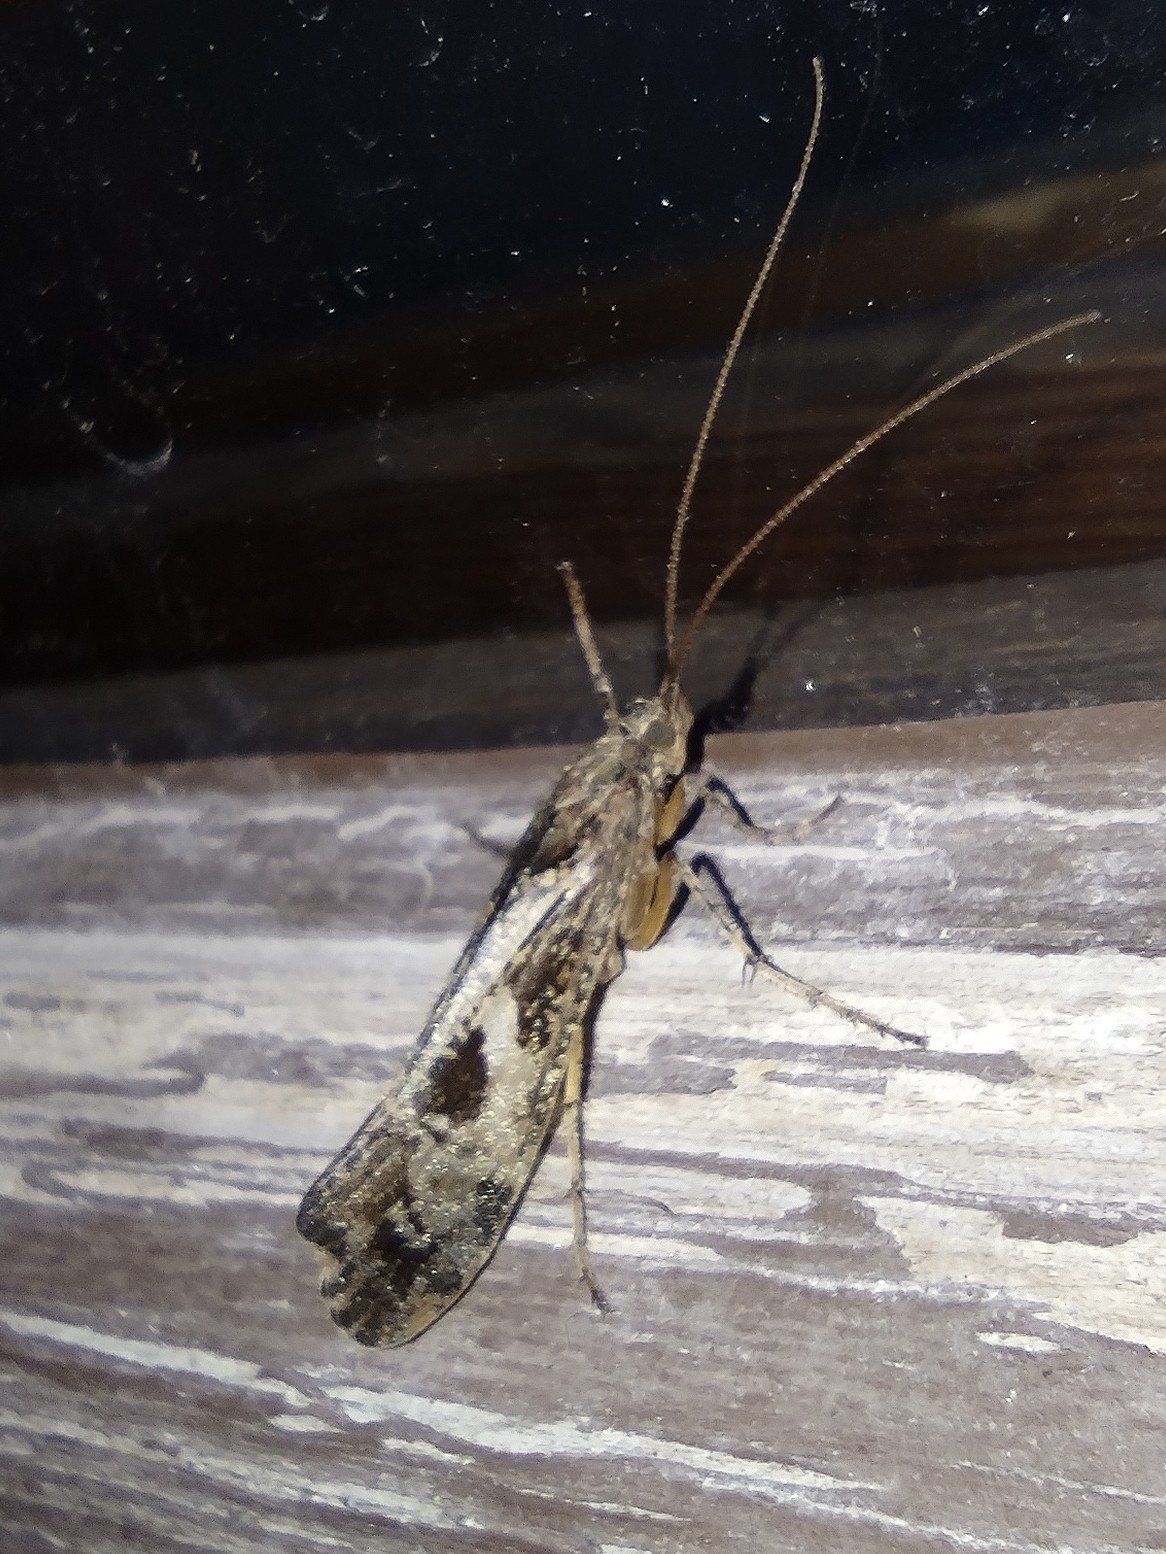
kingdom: Animalia
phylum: Arthropoda
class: Insecta
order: Trichoptera
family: Limnephilidae
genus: Glyphotaelius
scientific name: Glyphotaelius pellucidus
